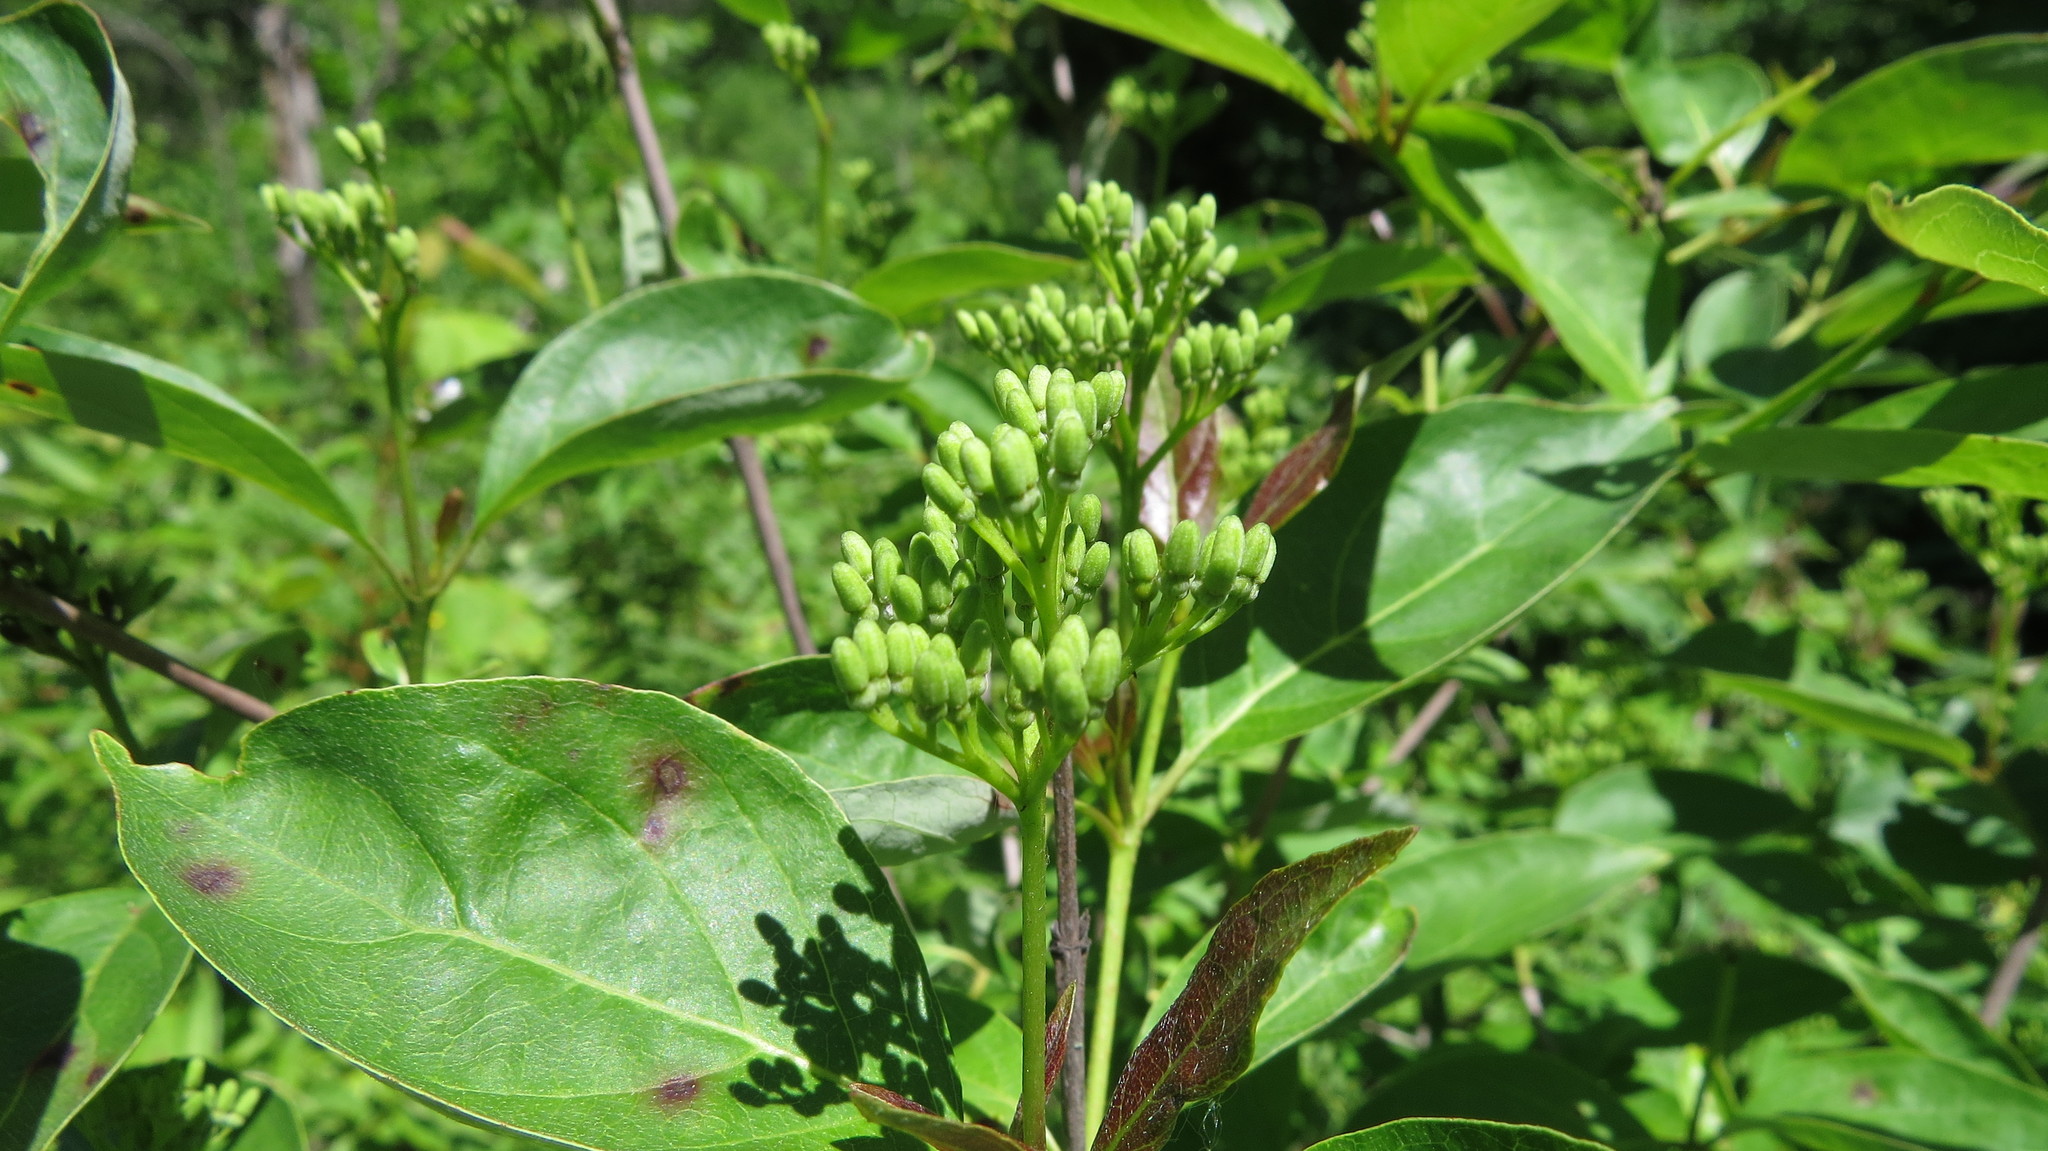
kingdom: Plantae
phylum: Tracheophyta
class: Magnoliopsida
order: Cornales
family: Cornaceae
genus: Cornus
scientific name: Cornus racemosa
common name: Panicled dogwood
